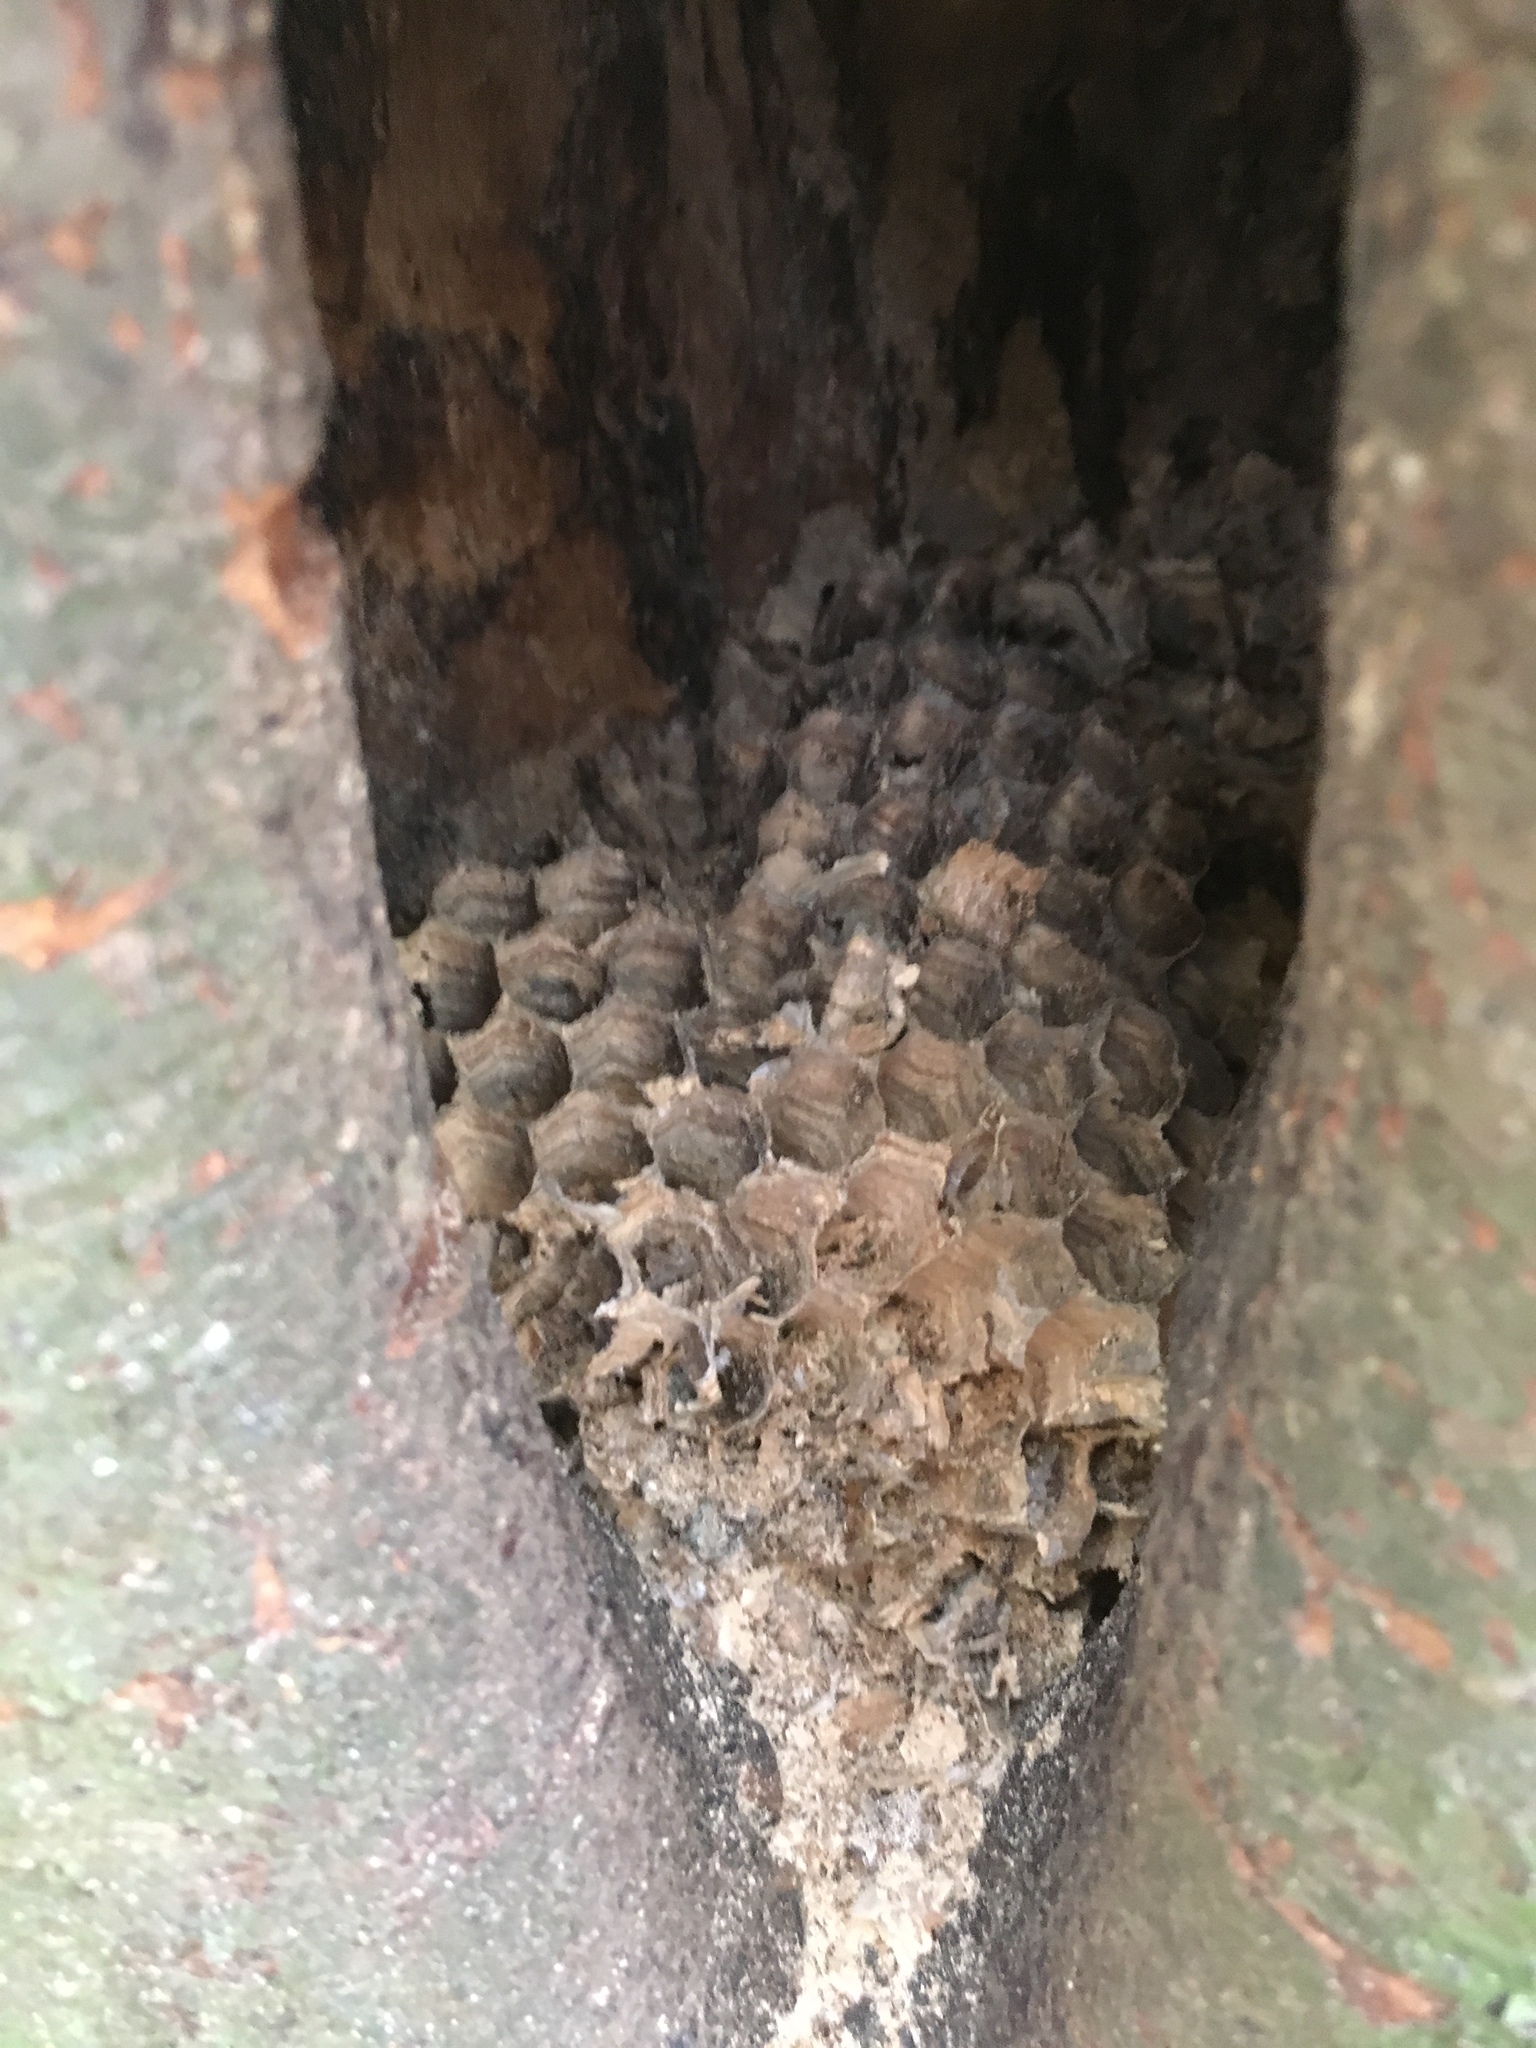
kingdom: Animalia
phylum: Arthropoda
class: Insecta
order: Hymenoptera
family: Vespidae
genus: Vespa
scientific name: Vespa crabro
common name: Hornet
